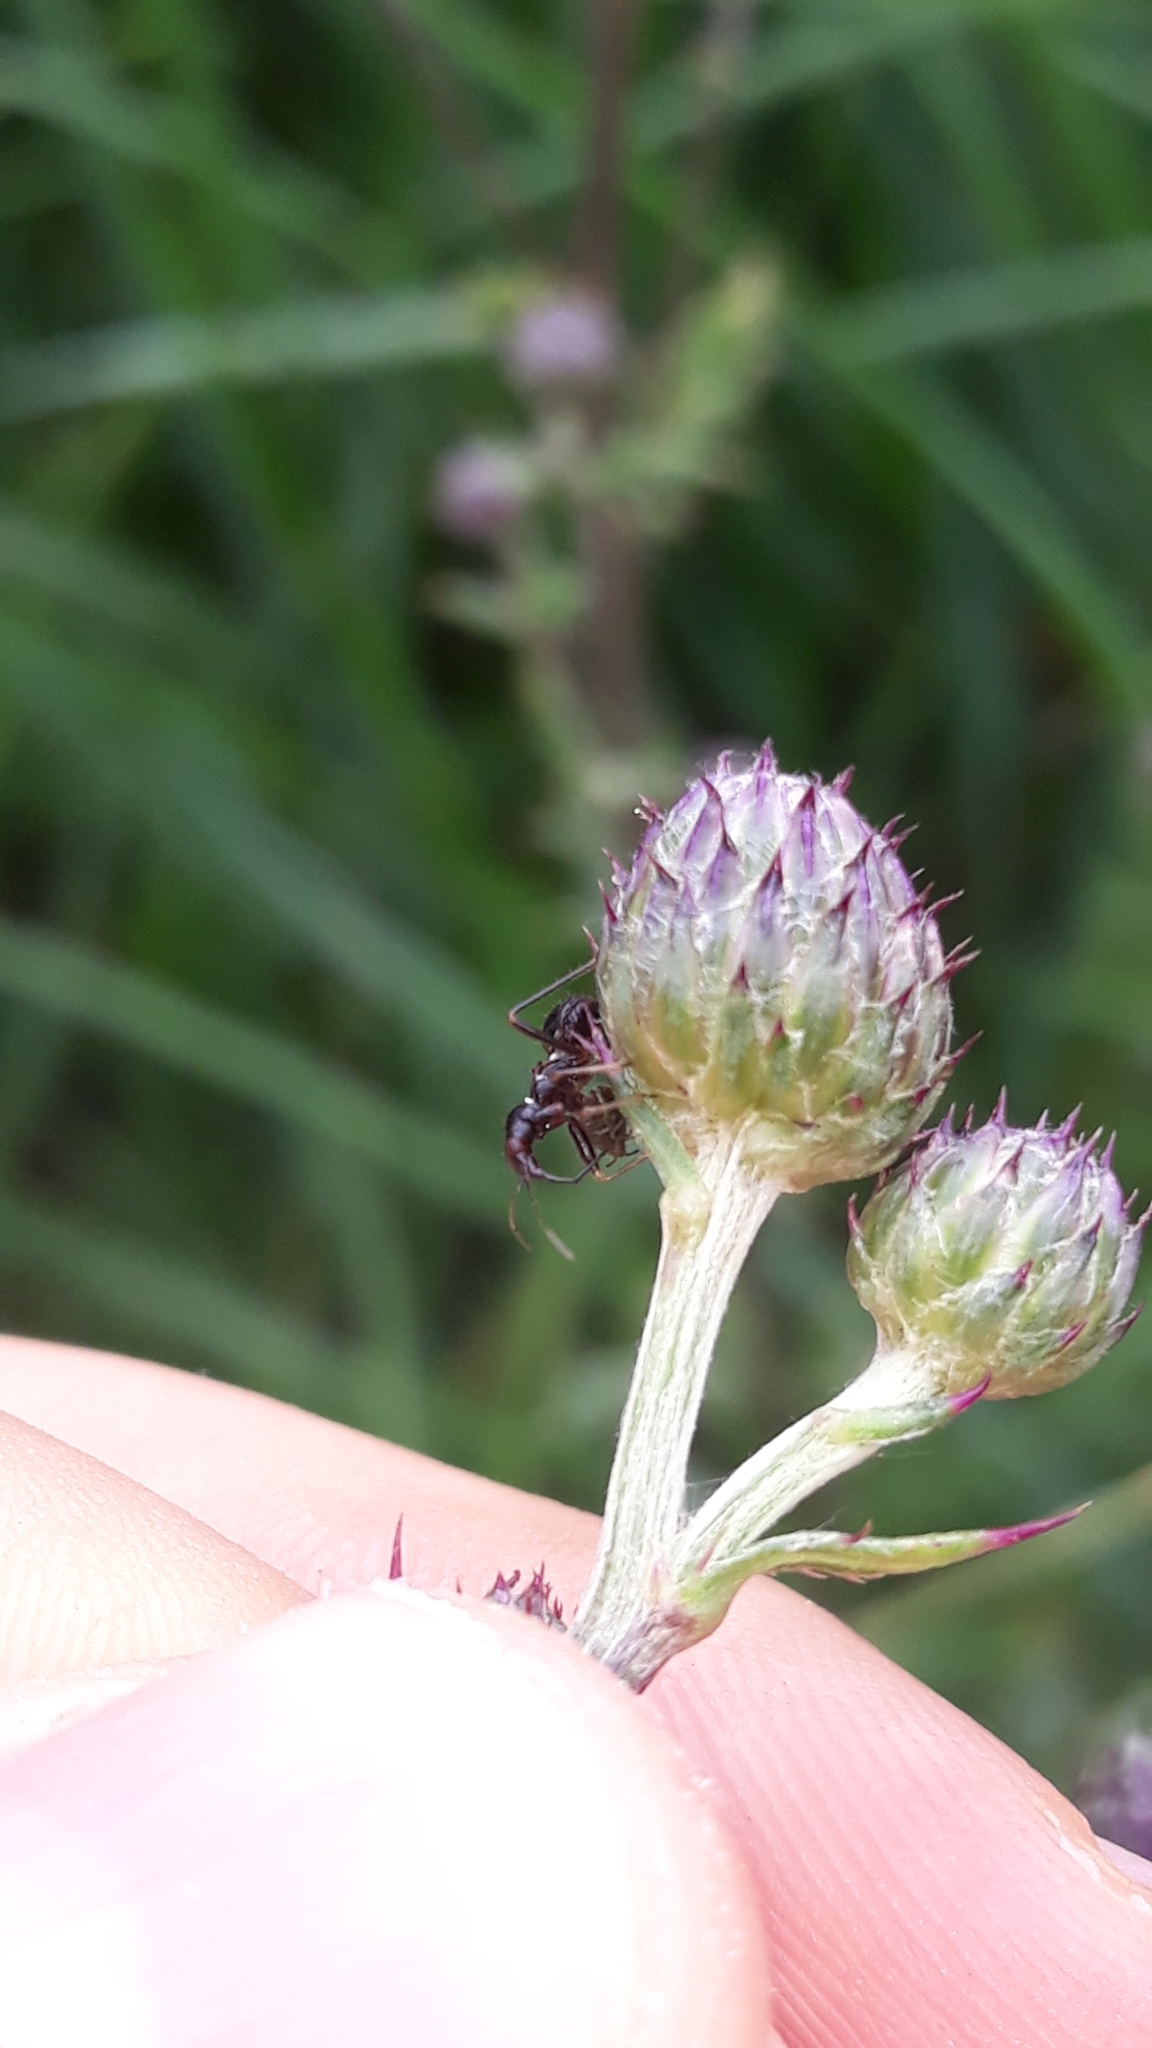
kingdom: Animalia
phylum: Arthropoda
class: Insecta
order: Hemiptera
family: Nabidae
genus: Himacerus
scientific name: Himacerus mirmicoides
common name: Ant damsel bug
